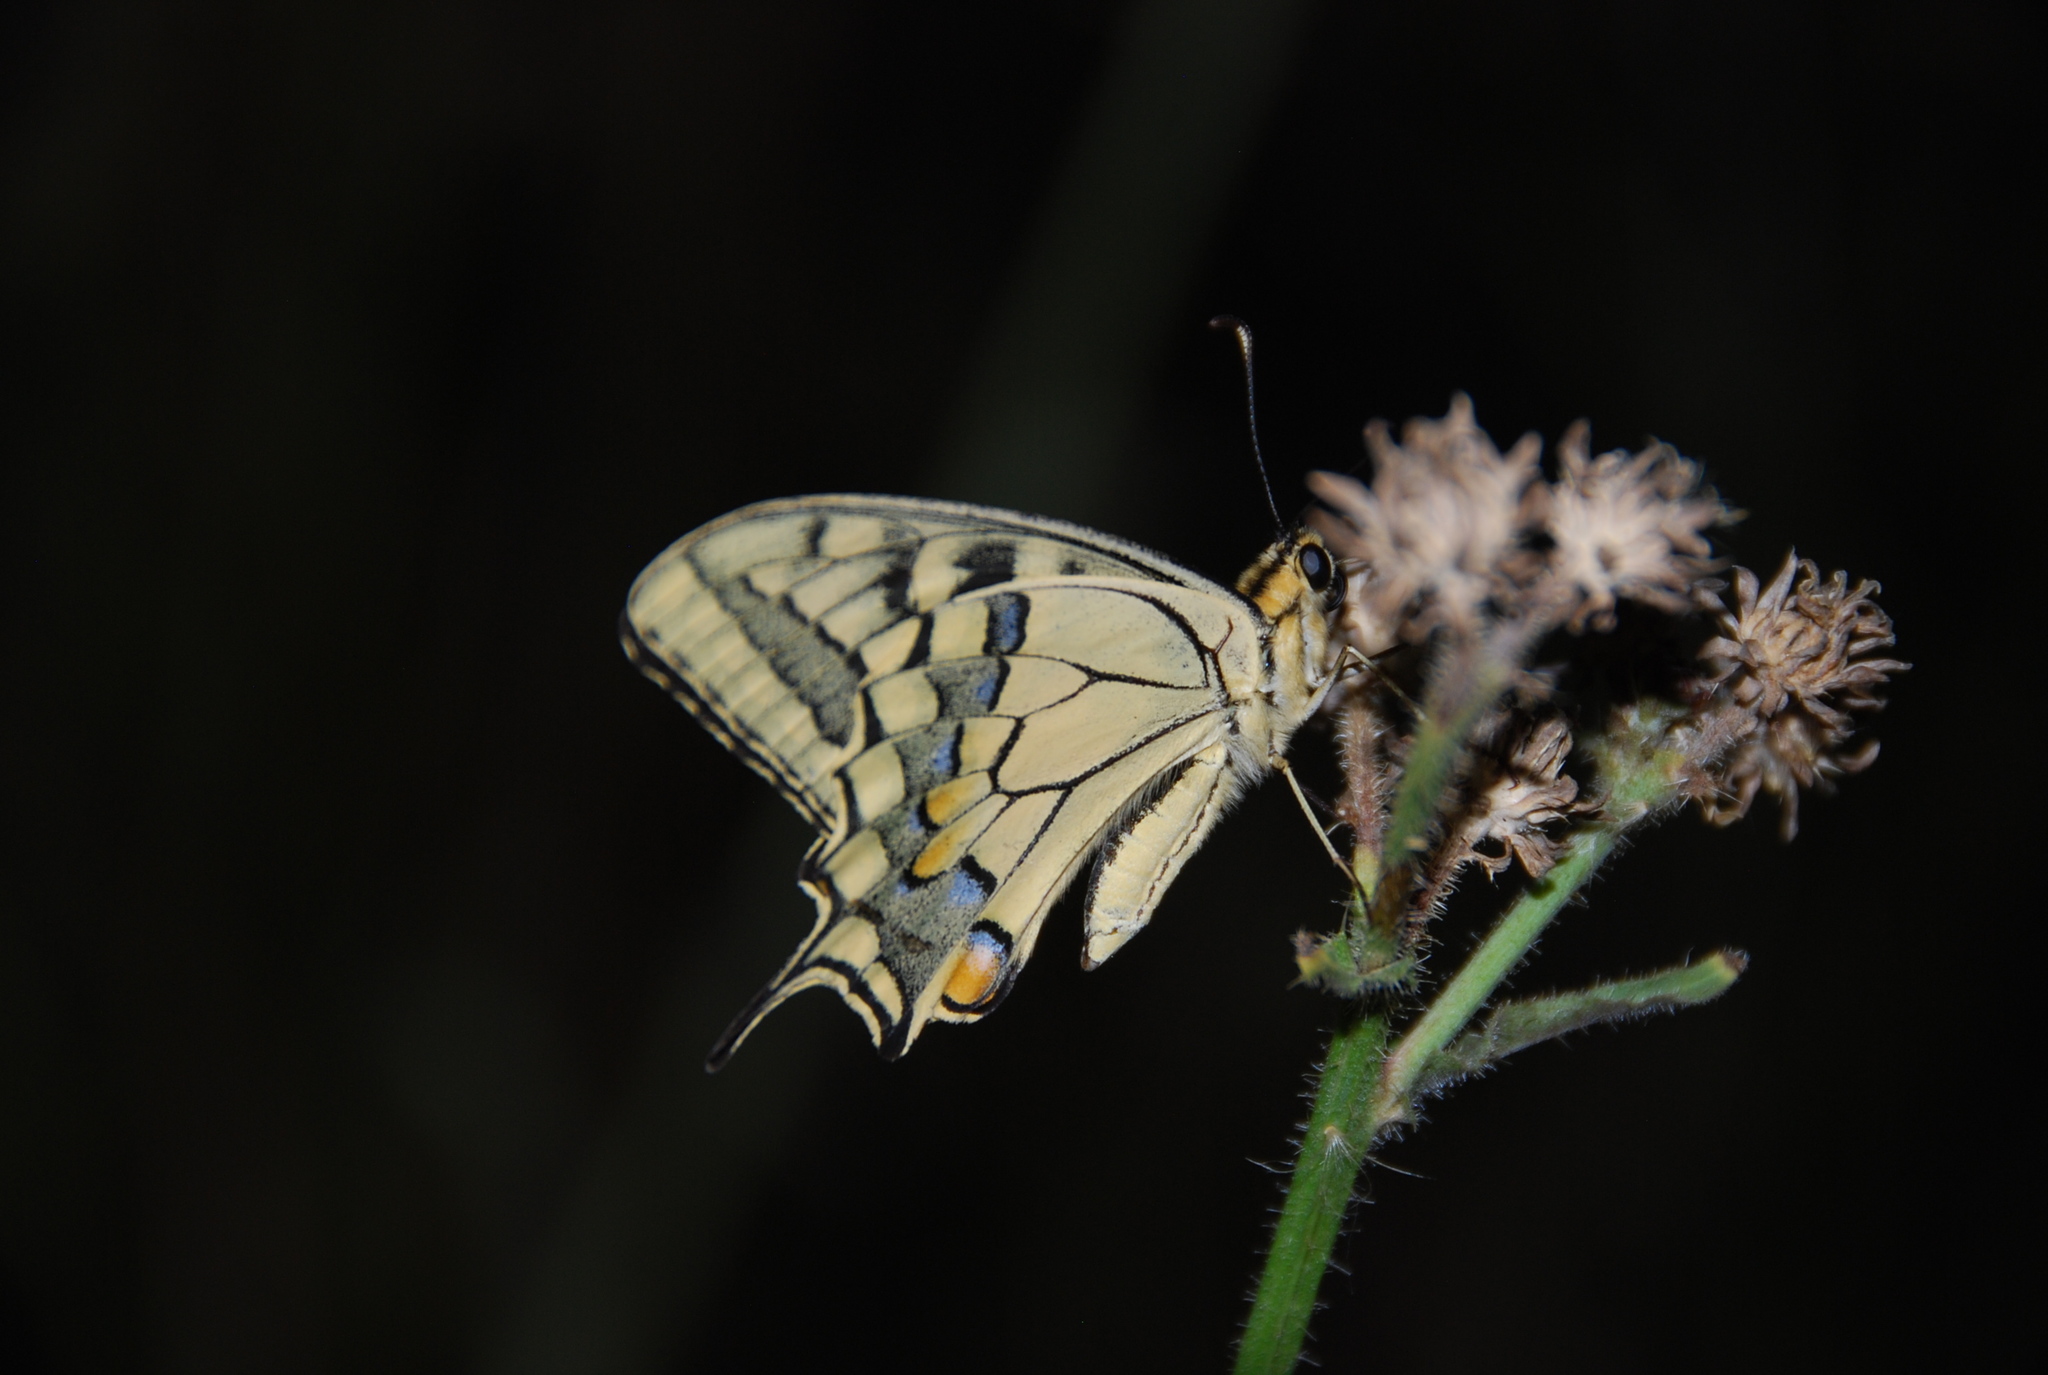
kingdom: Animalia
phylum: Arthropoda
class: Insecta
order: Lepidoptera
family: Papilionidae
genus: Papilio
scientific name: Papilio machaon
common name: Swallowtail
